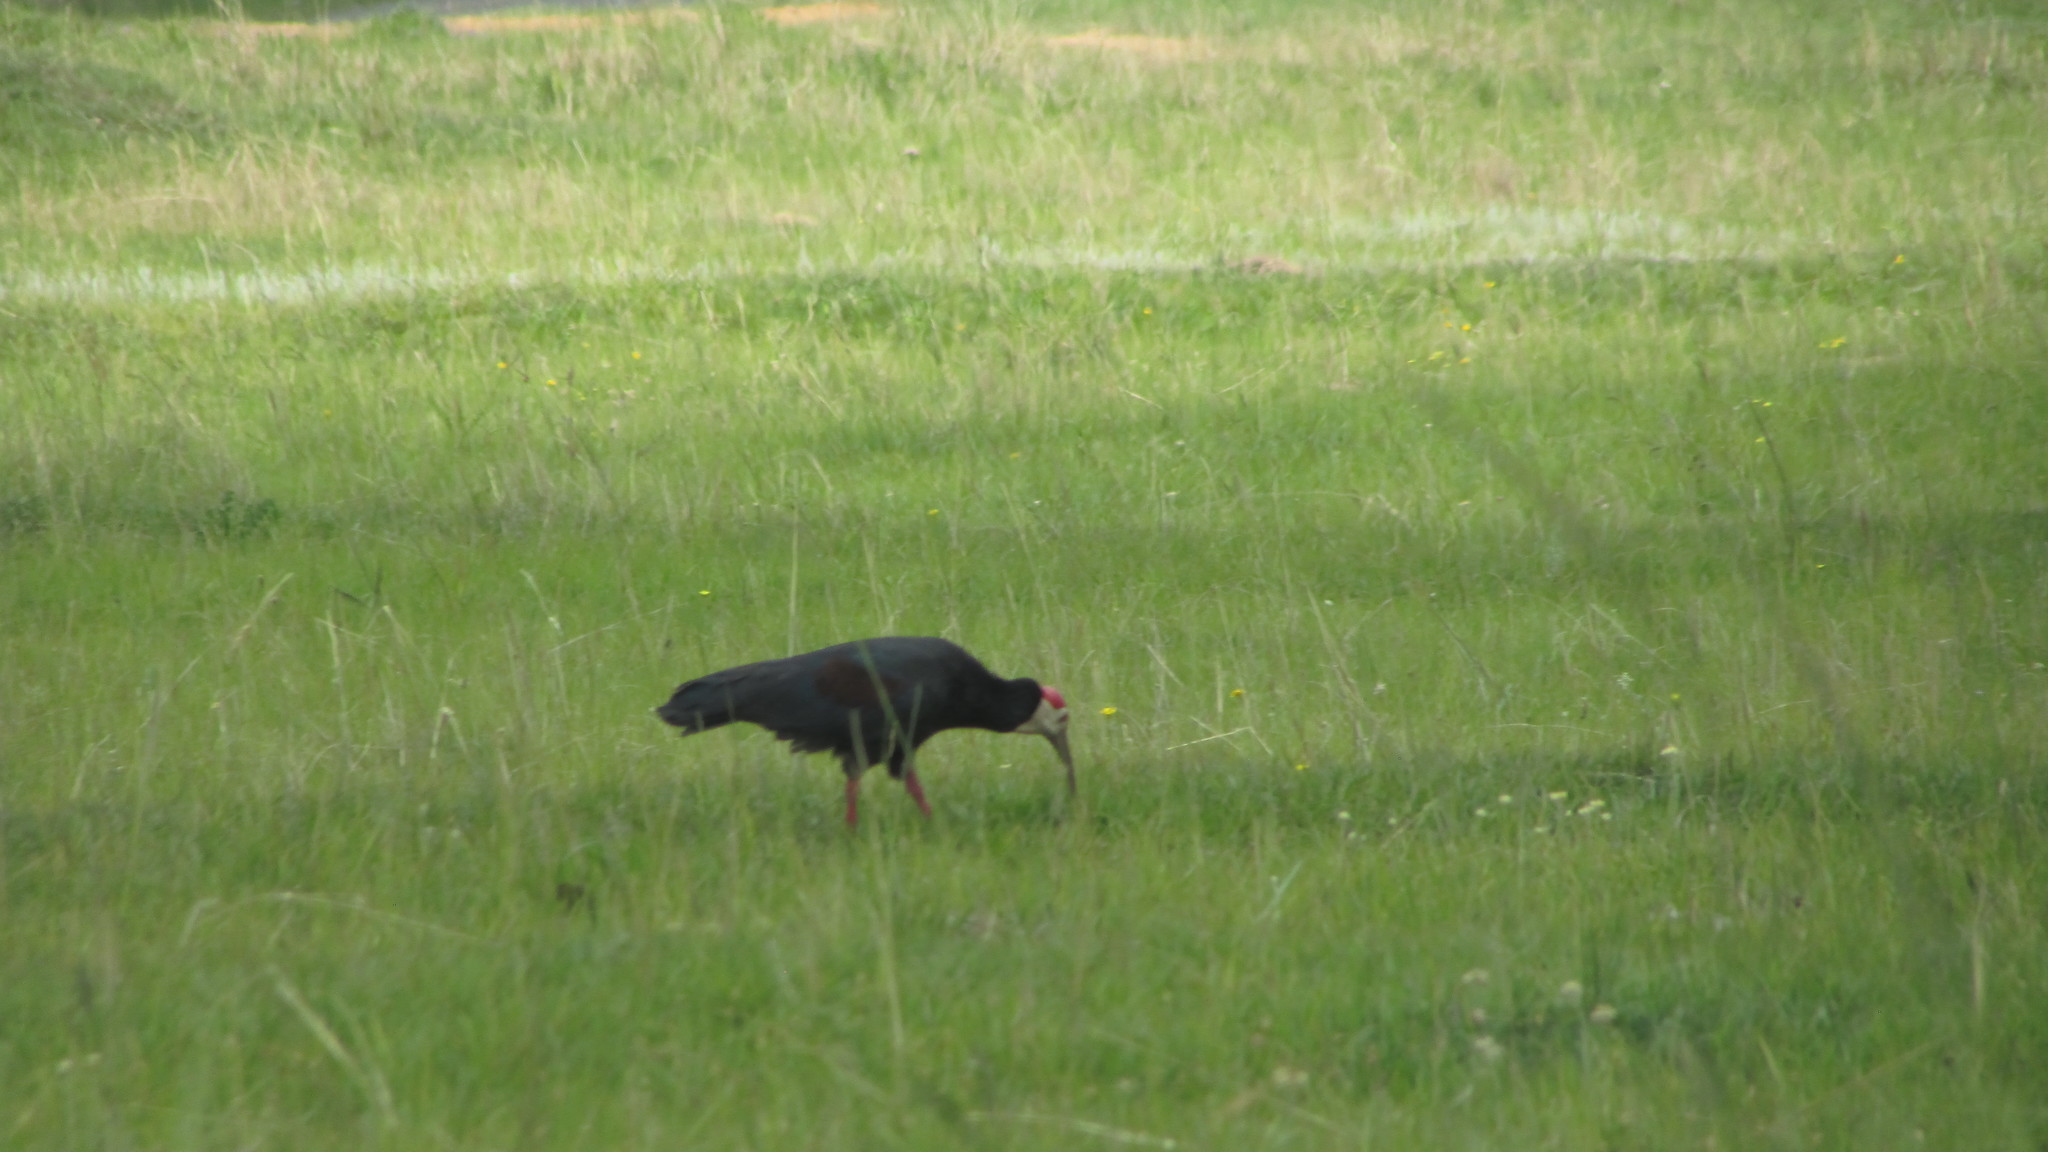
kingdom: Animalia
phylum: Chordata
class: Aves
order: Pelecaniformes
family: Threskiornithidae
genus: Geronticus
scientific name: Geronticus calvus
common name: Southern bald ibis
